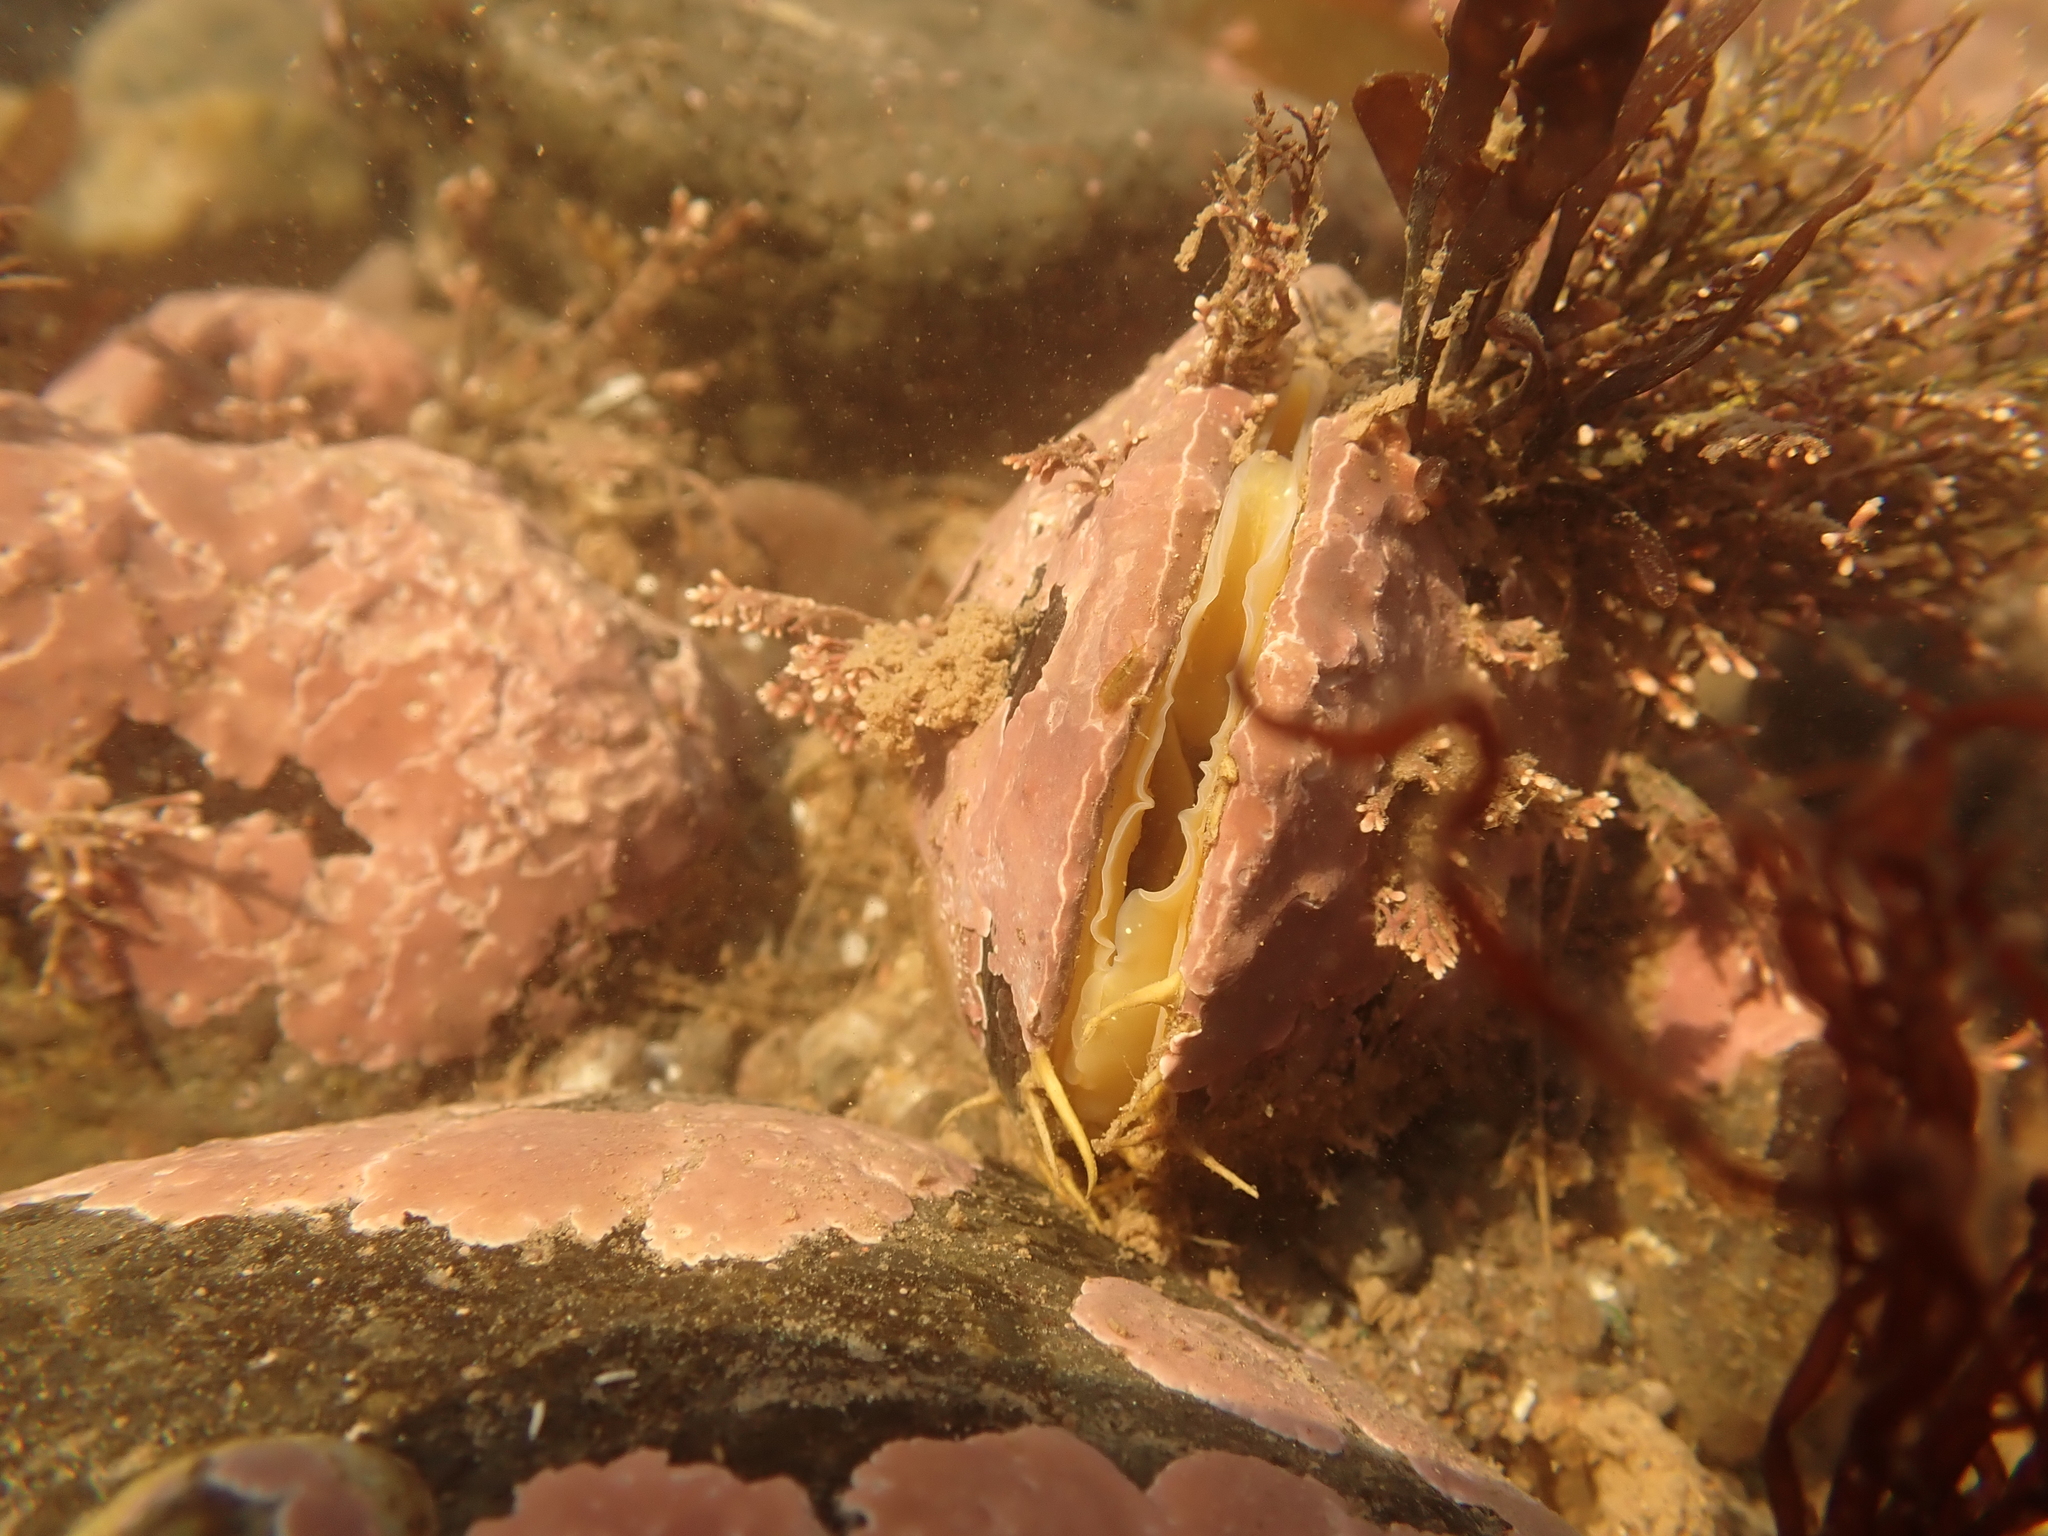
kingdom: Animalia
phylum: Mollusca
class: Bivalvia
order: Mytilida
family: Mytilidae
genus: Modiolus
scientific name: Modiolus modiolus
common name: Horse-mussel
